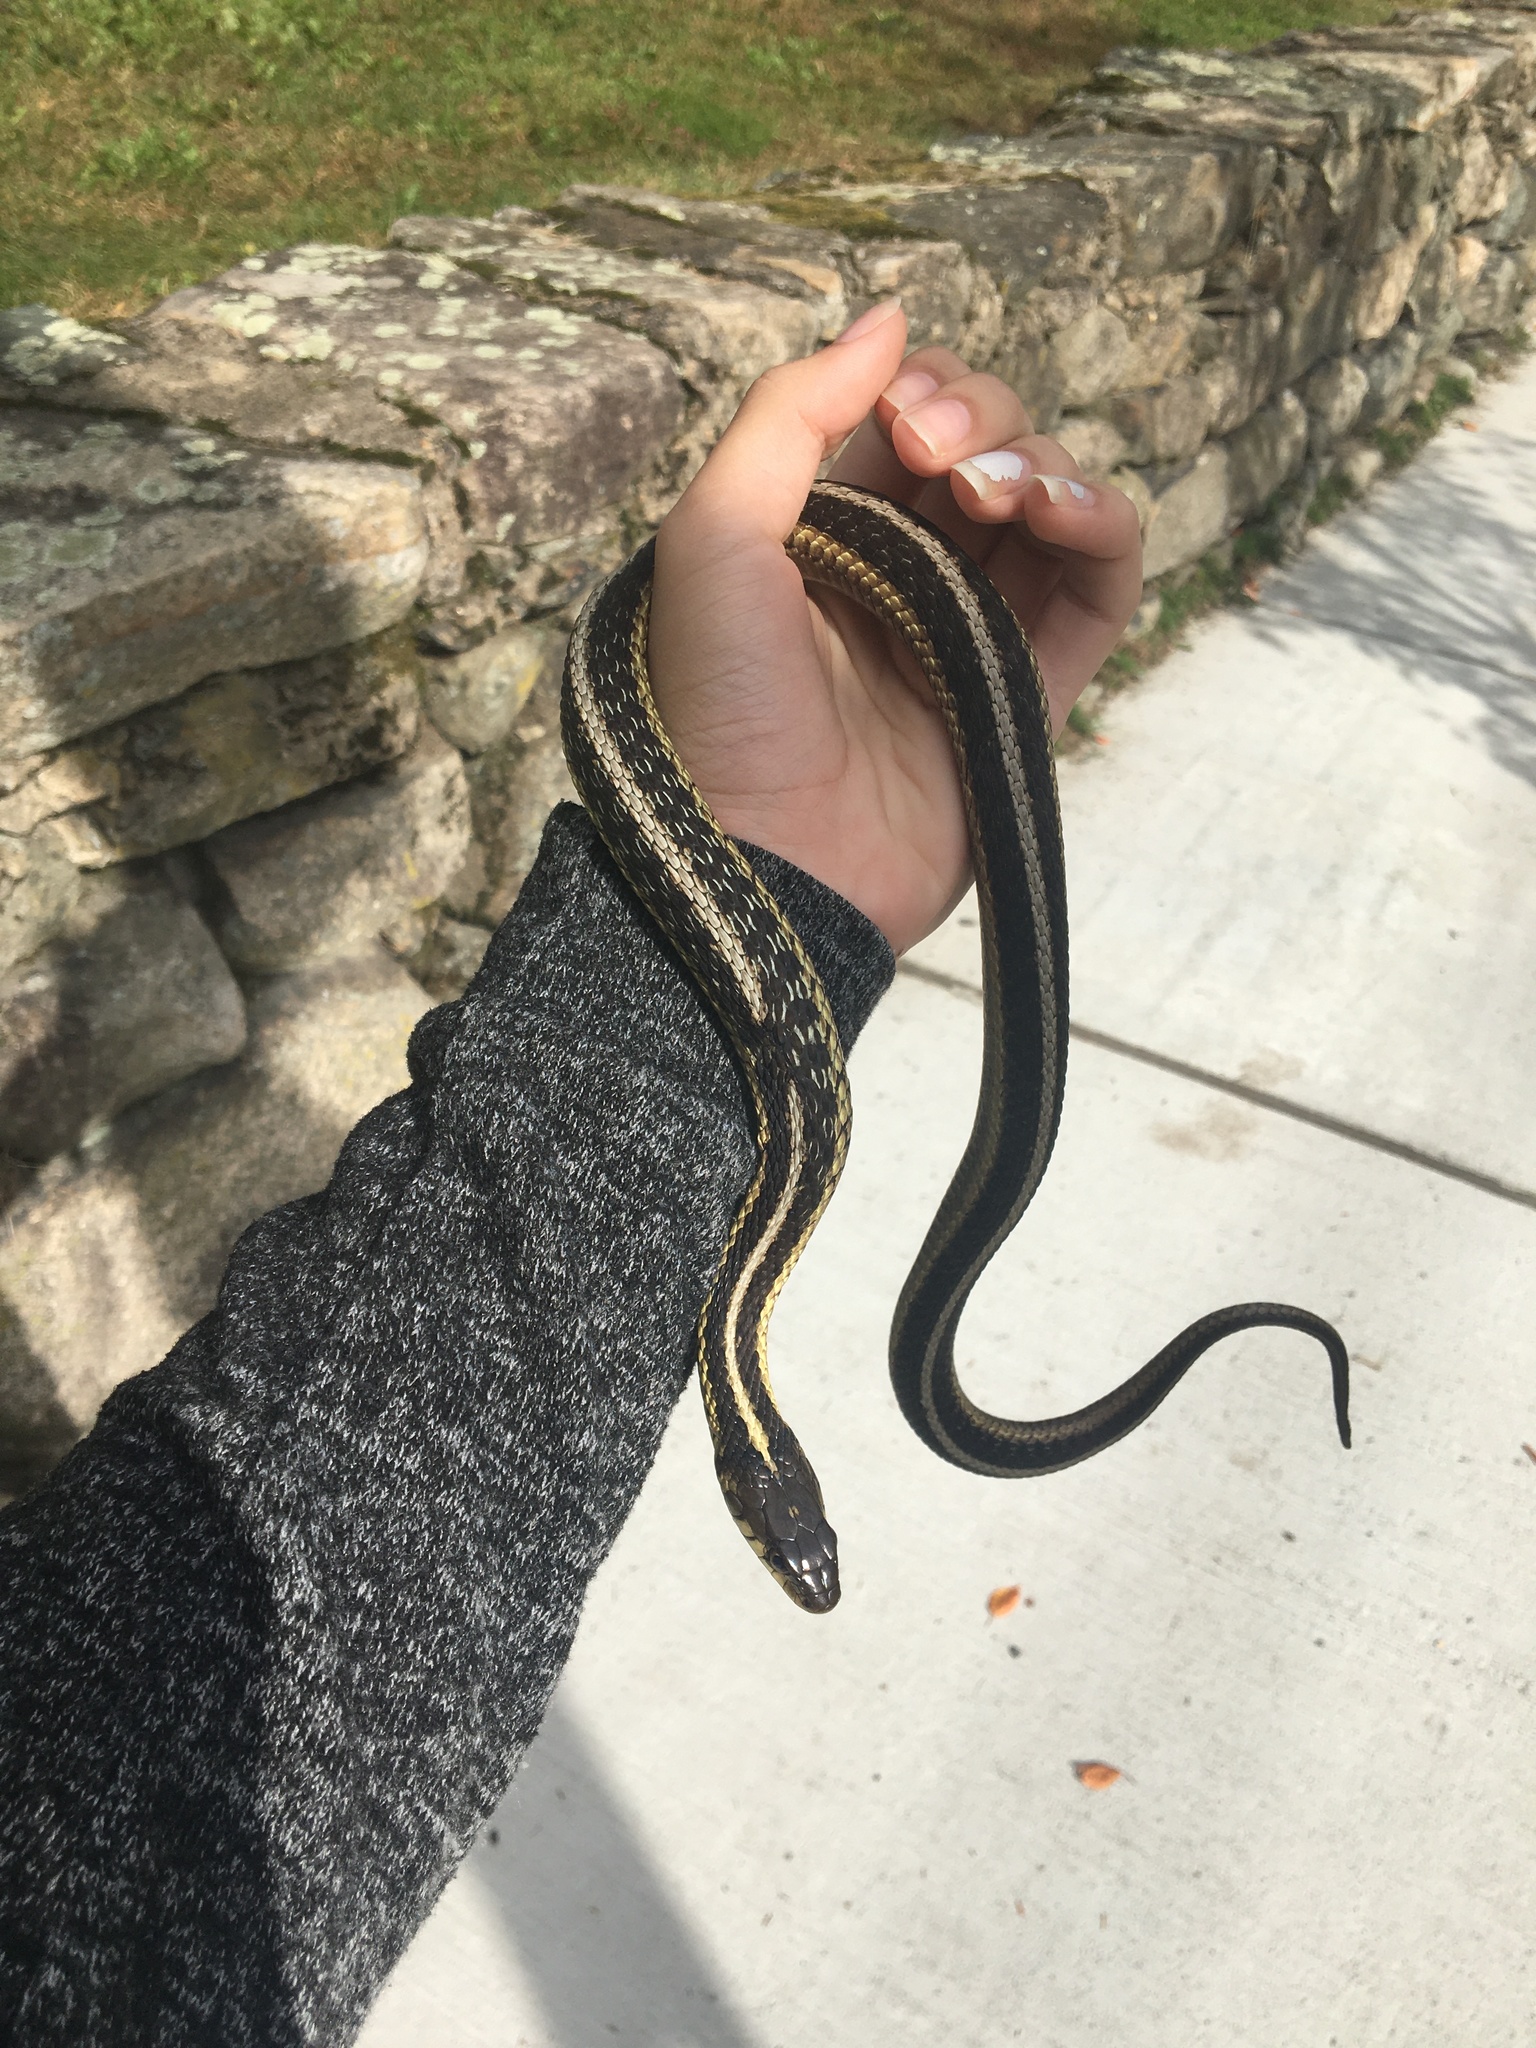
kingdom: Animalia
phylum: Chordata
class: Squamata
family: Colubridae
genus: Thamnophis
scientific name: Thamnophis sirtalis
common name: Common garter snake
